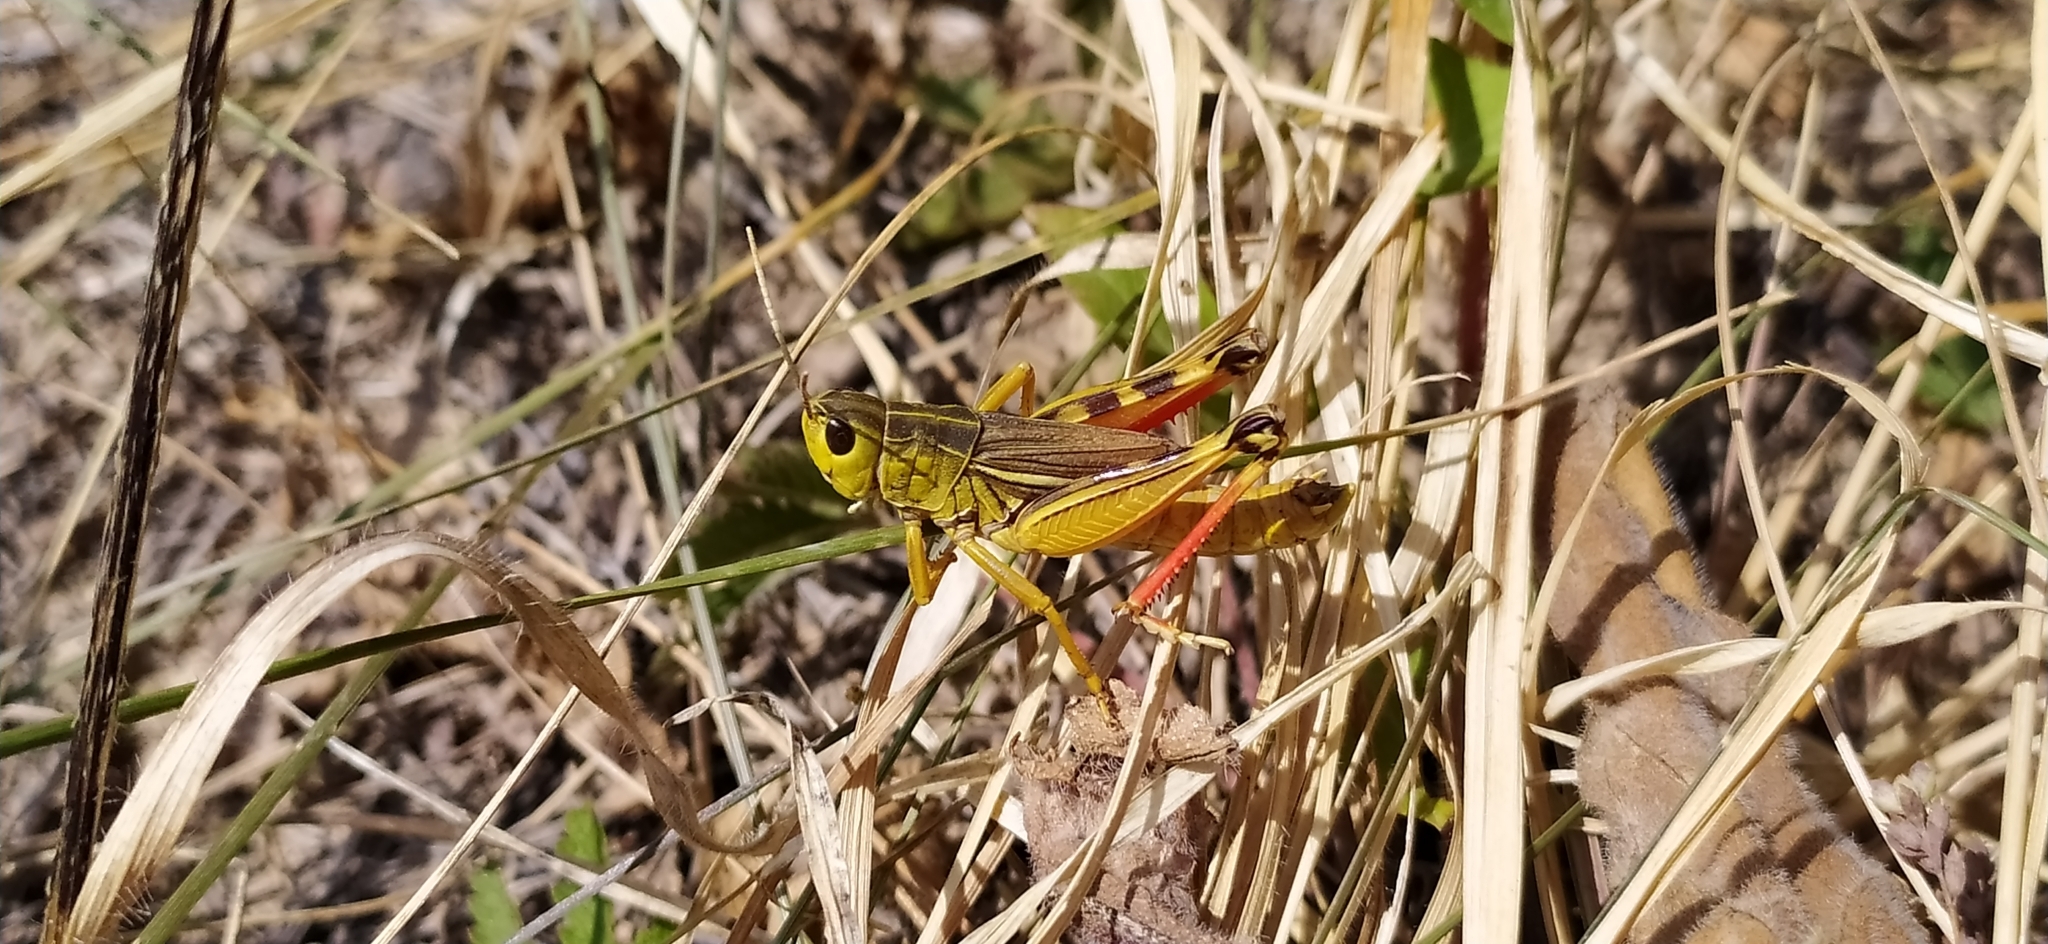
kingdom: Animalia
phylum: Arthropoda
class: Insecta
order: Orthoptera
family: Acrididae
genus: Arcyptera
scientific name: Arcyptera fusca
